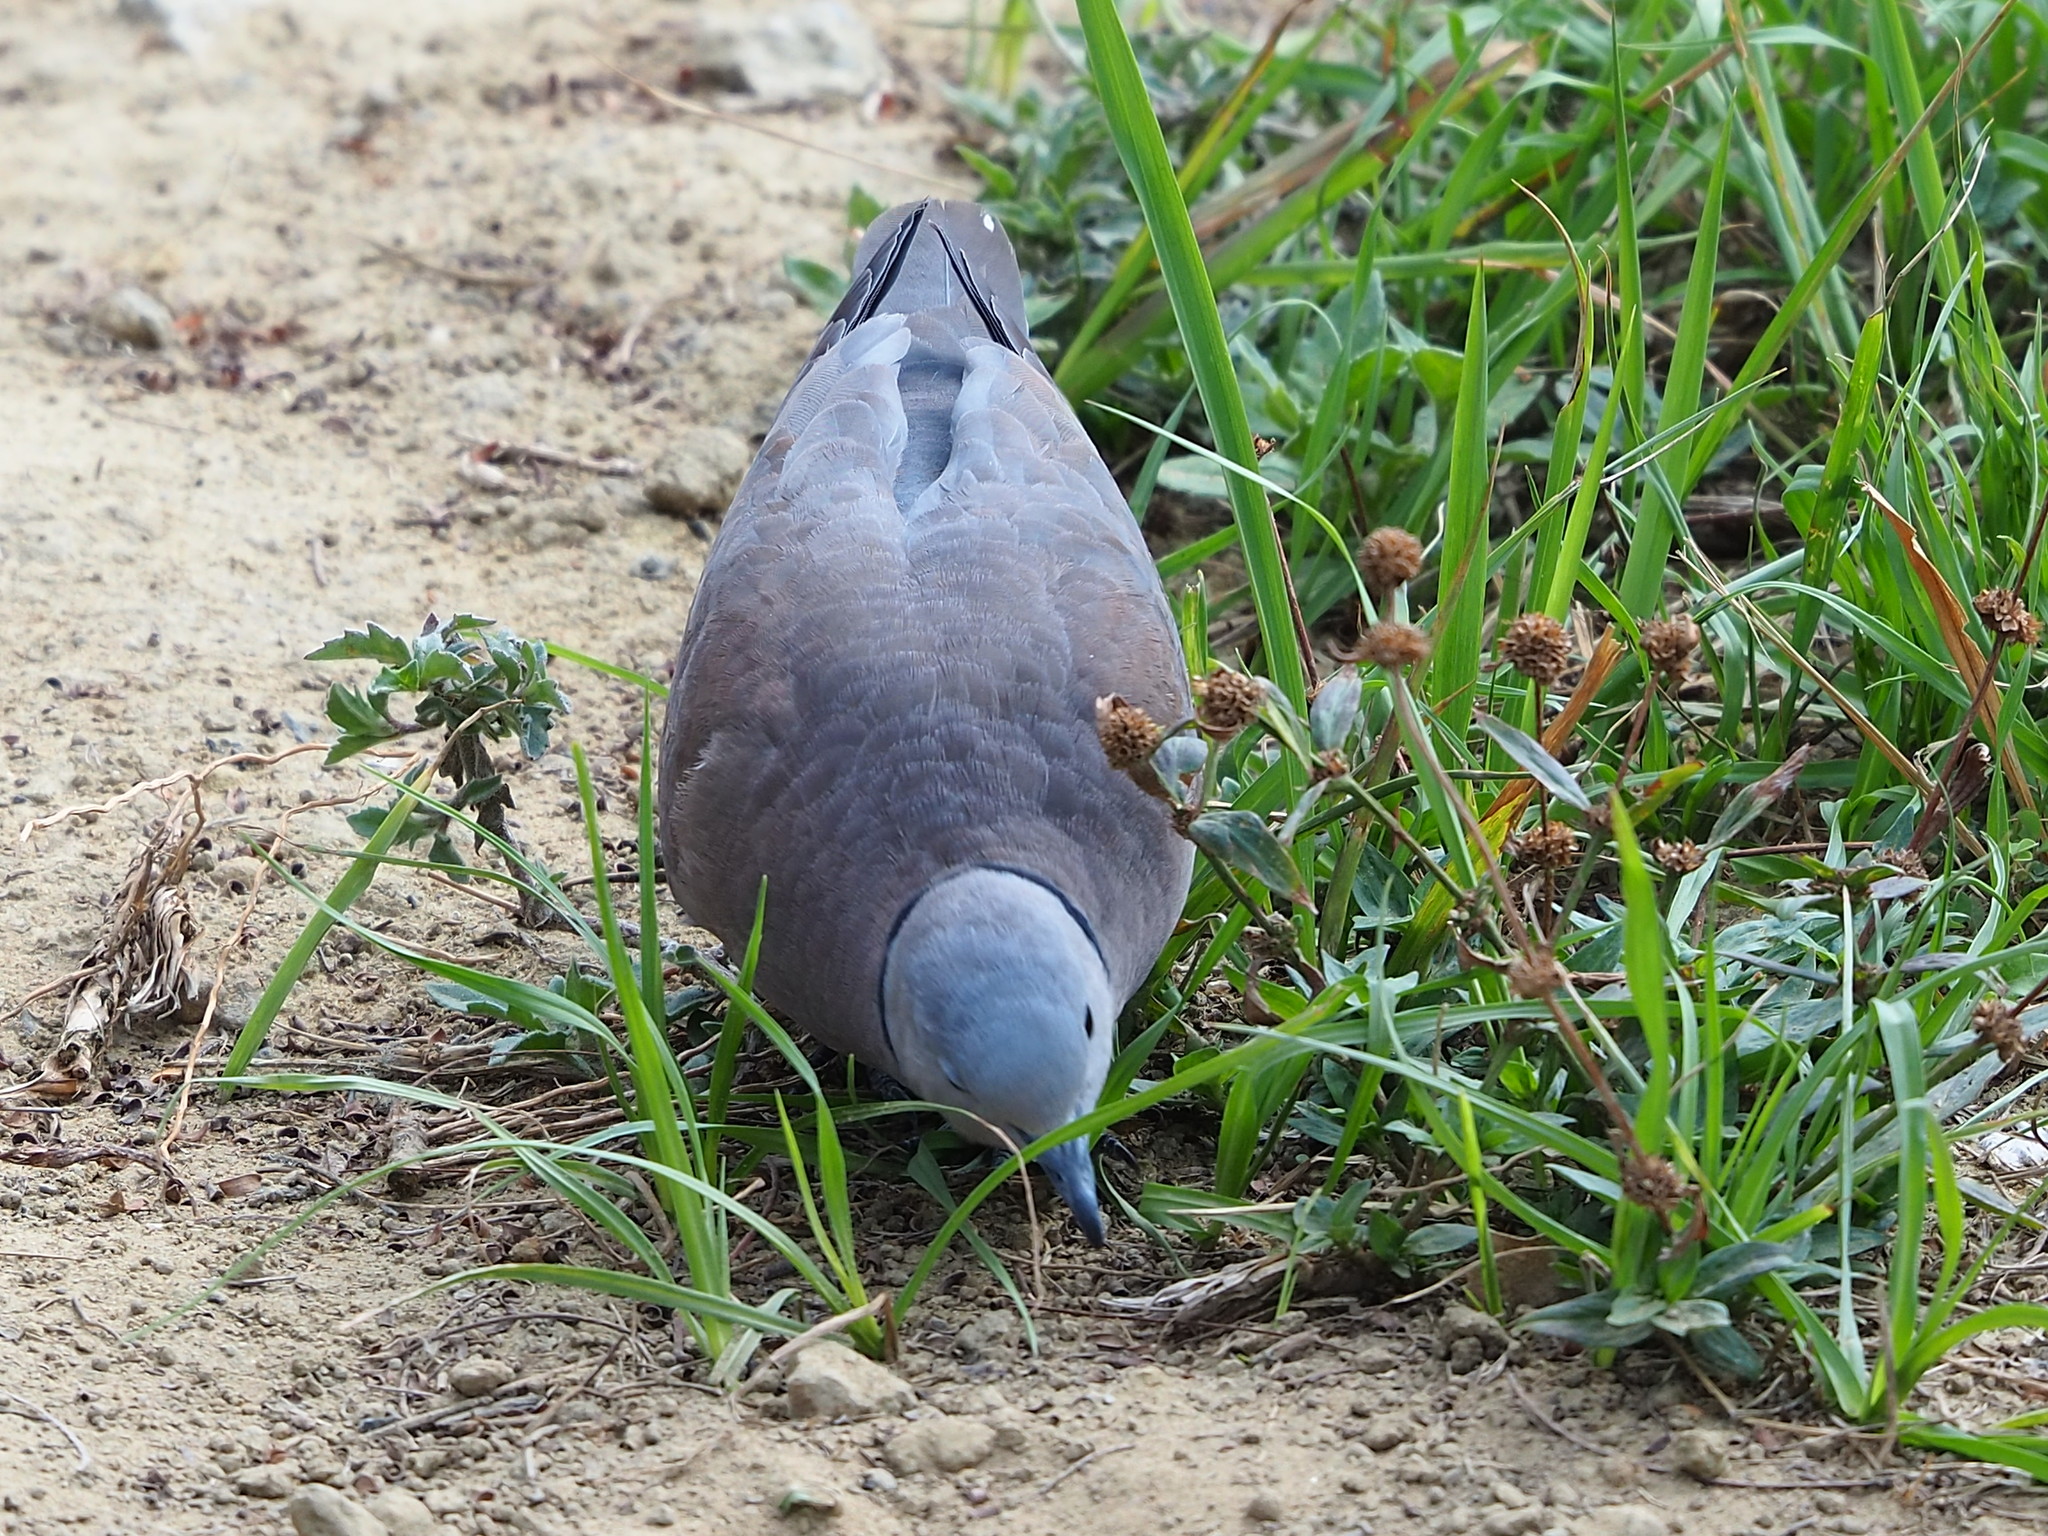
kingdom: Animalia
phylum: Chordata
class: Aves
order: Columbiformes
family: Columbidae
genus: Streptopelia
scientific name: Streptopelia tranquebarica
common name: Red turtle dove
